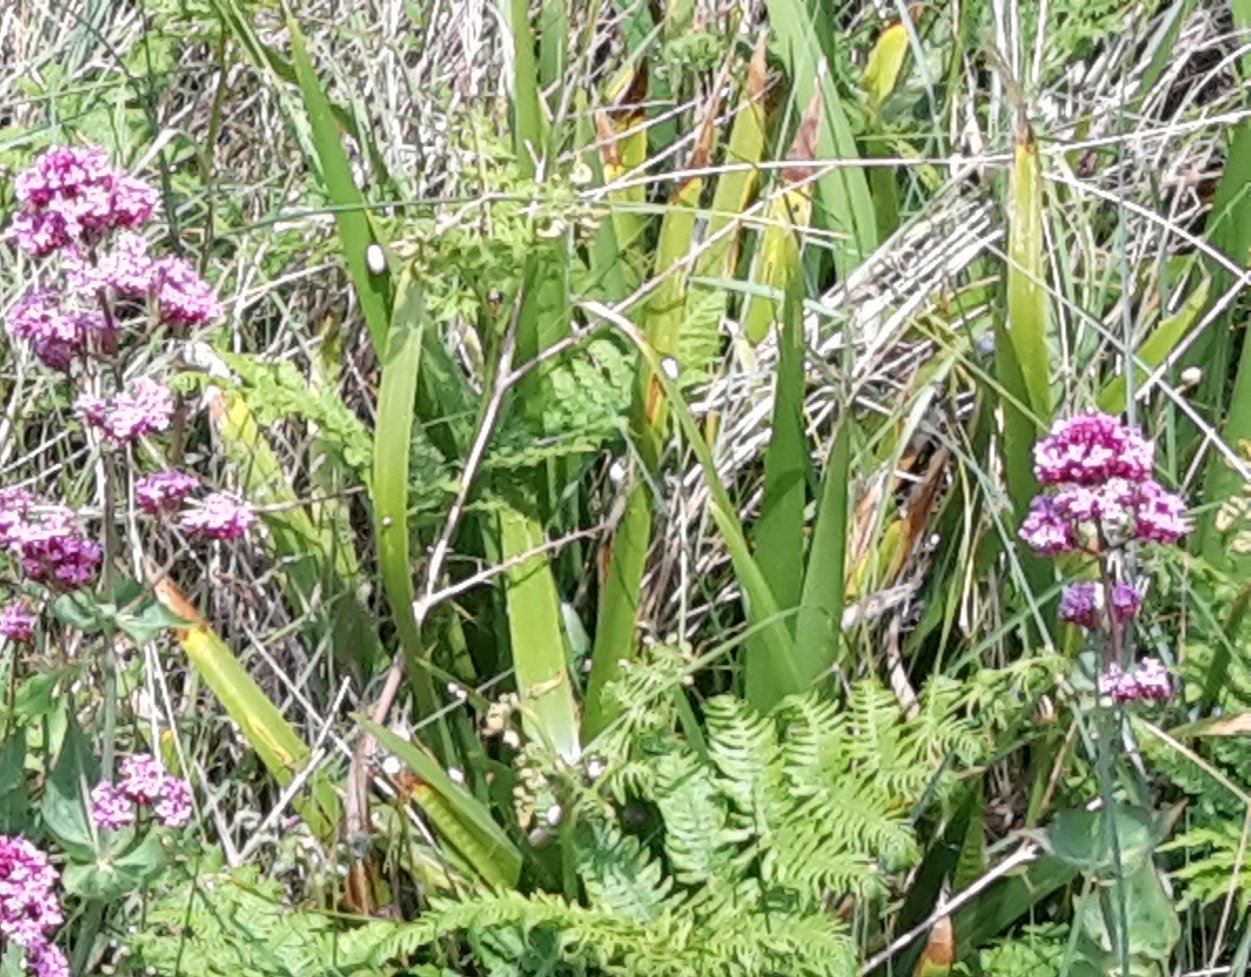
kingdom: Plantae
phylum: Tracheophyta
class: Liliopsida
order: Asparagales
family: Iridaceae
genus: Iris
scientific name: Iris foetidissima
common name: Stinking iris
